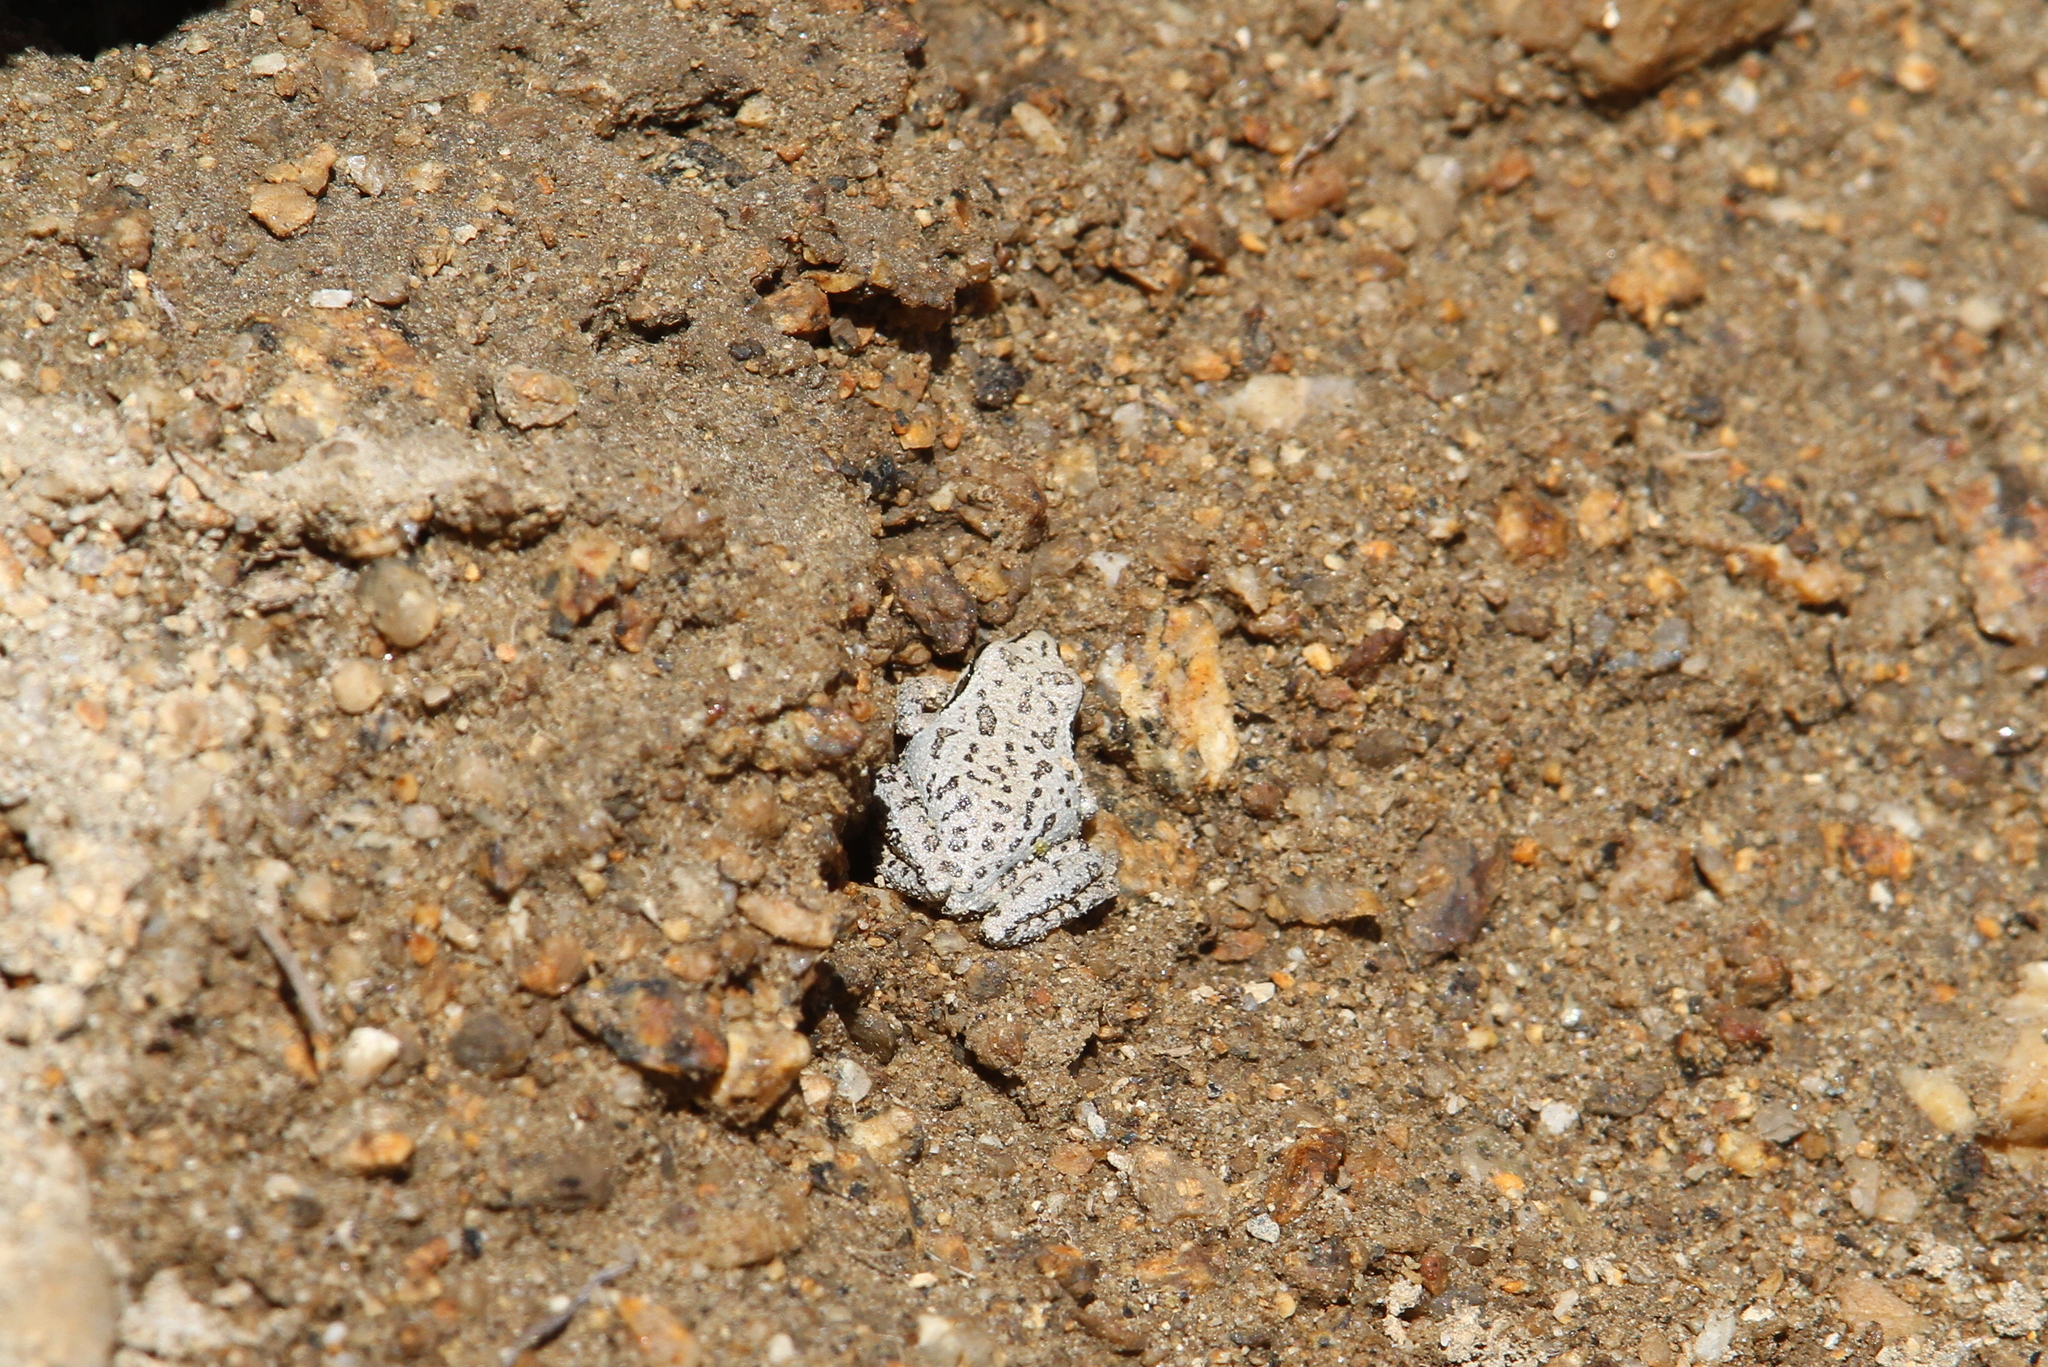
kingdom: Animalia
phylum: Chordata
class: Amphibia
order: Anura
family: Hylidae
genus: Pseudacris
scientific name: Pseudacris regilla
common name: Pacific chorus frog
